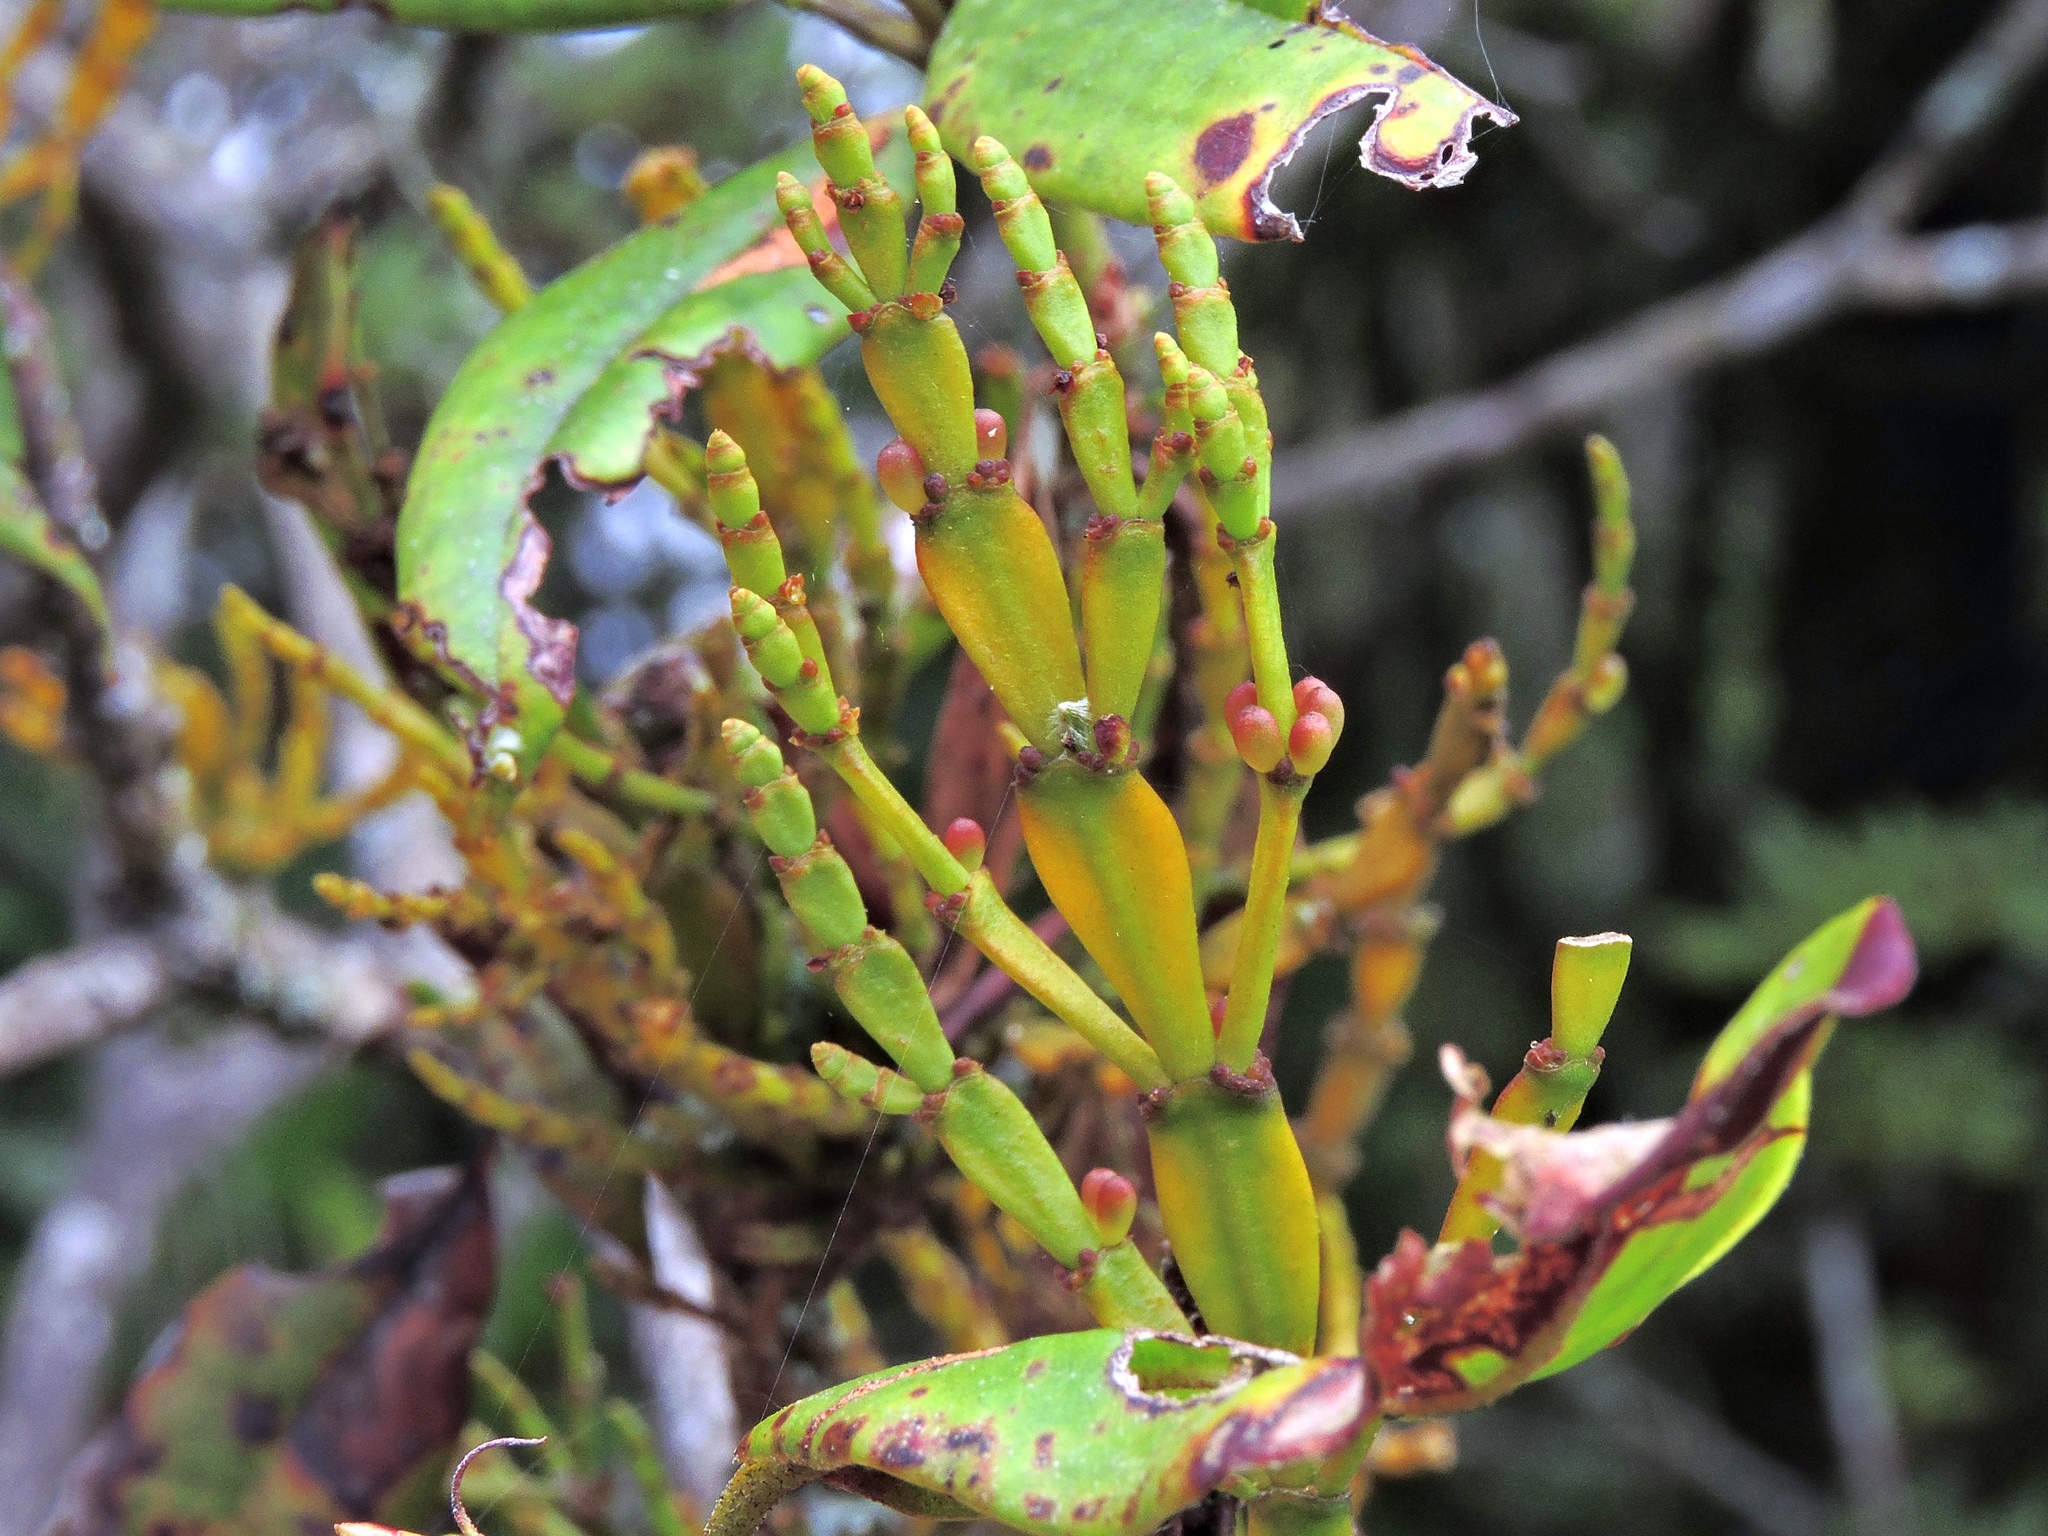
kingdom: Plantae
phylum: Tracheophyta
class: Magnoliopsida
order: Santalales
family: Viscaceae
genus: Korthalsella
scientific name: Korthalsella japonica
